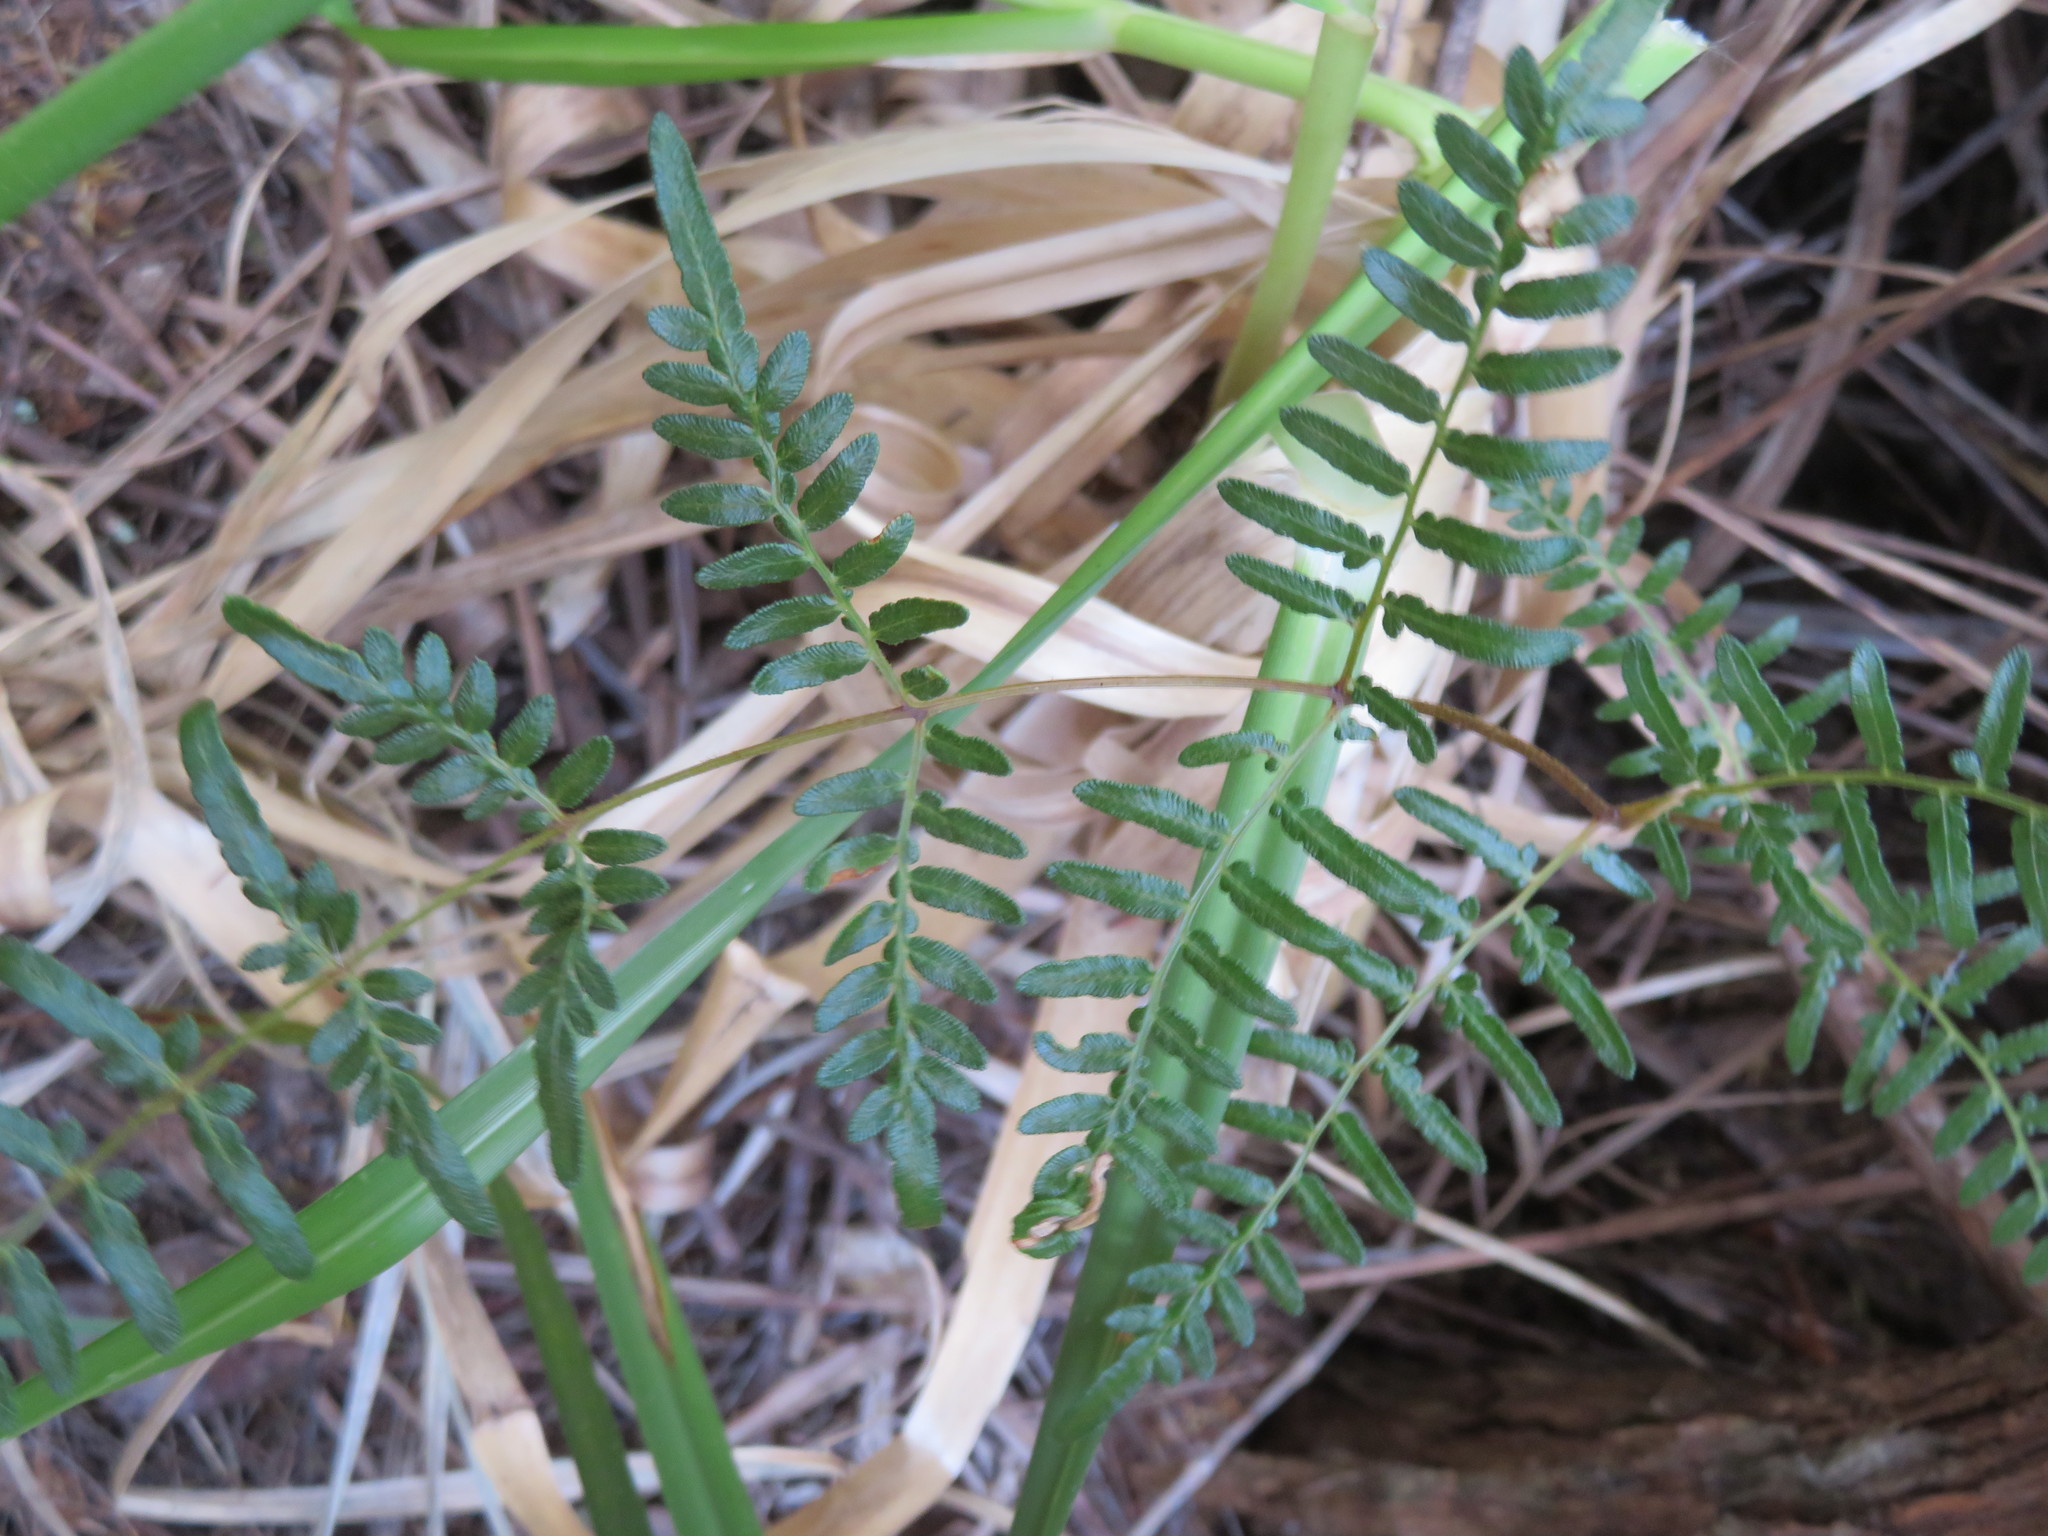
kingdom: Plantae
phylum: Tracheophyta
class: Polypodiopsida
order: Polypodiales
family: Dennstaedtiaceae
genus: Pteridium
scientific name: Pteridium esculentum
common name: Bracken fern
